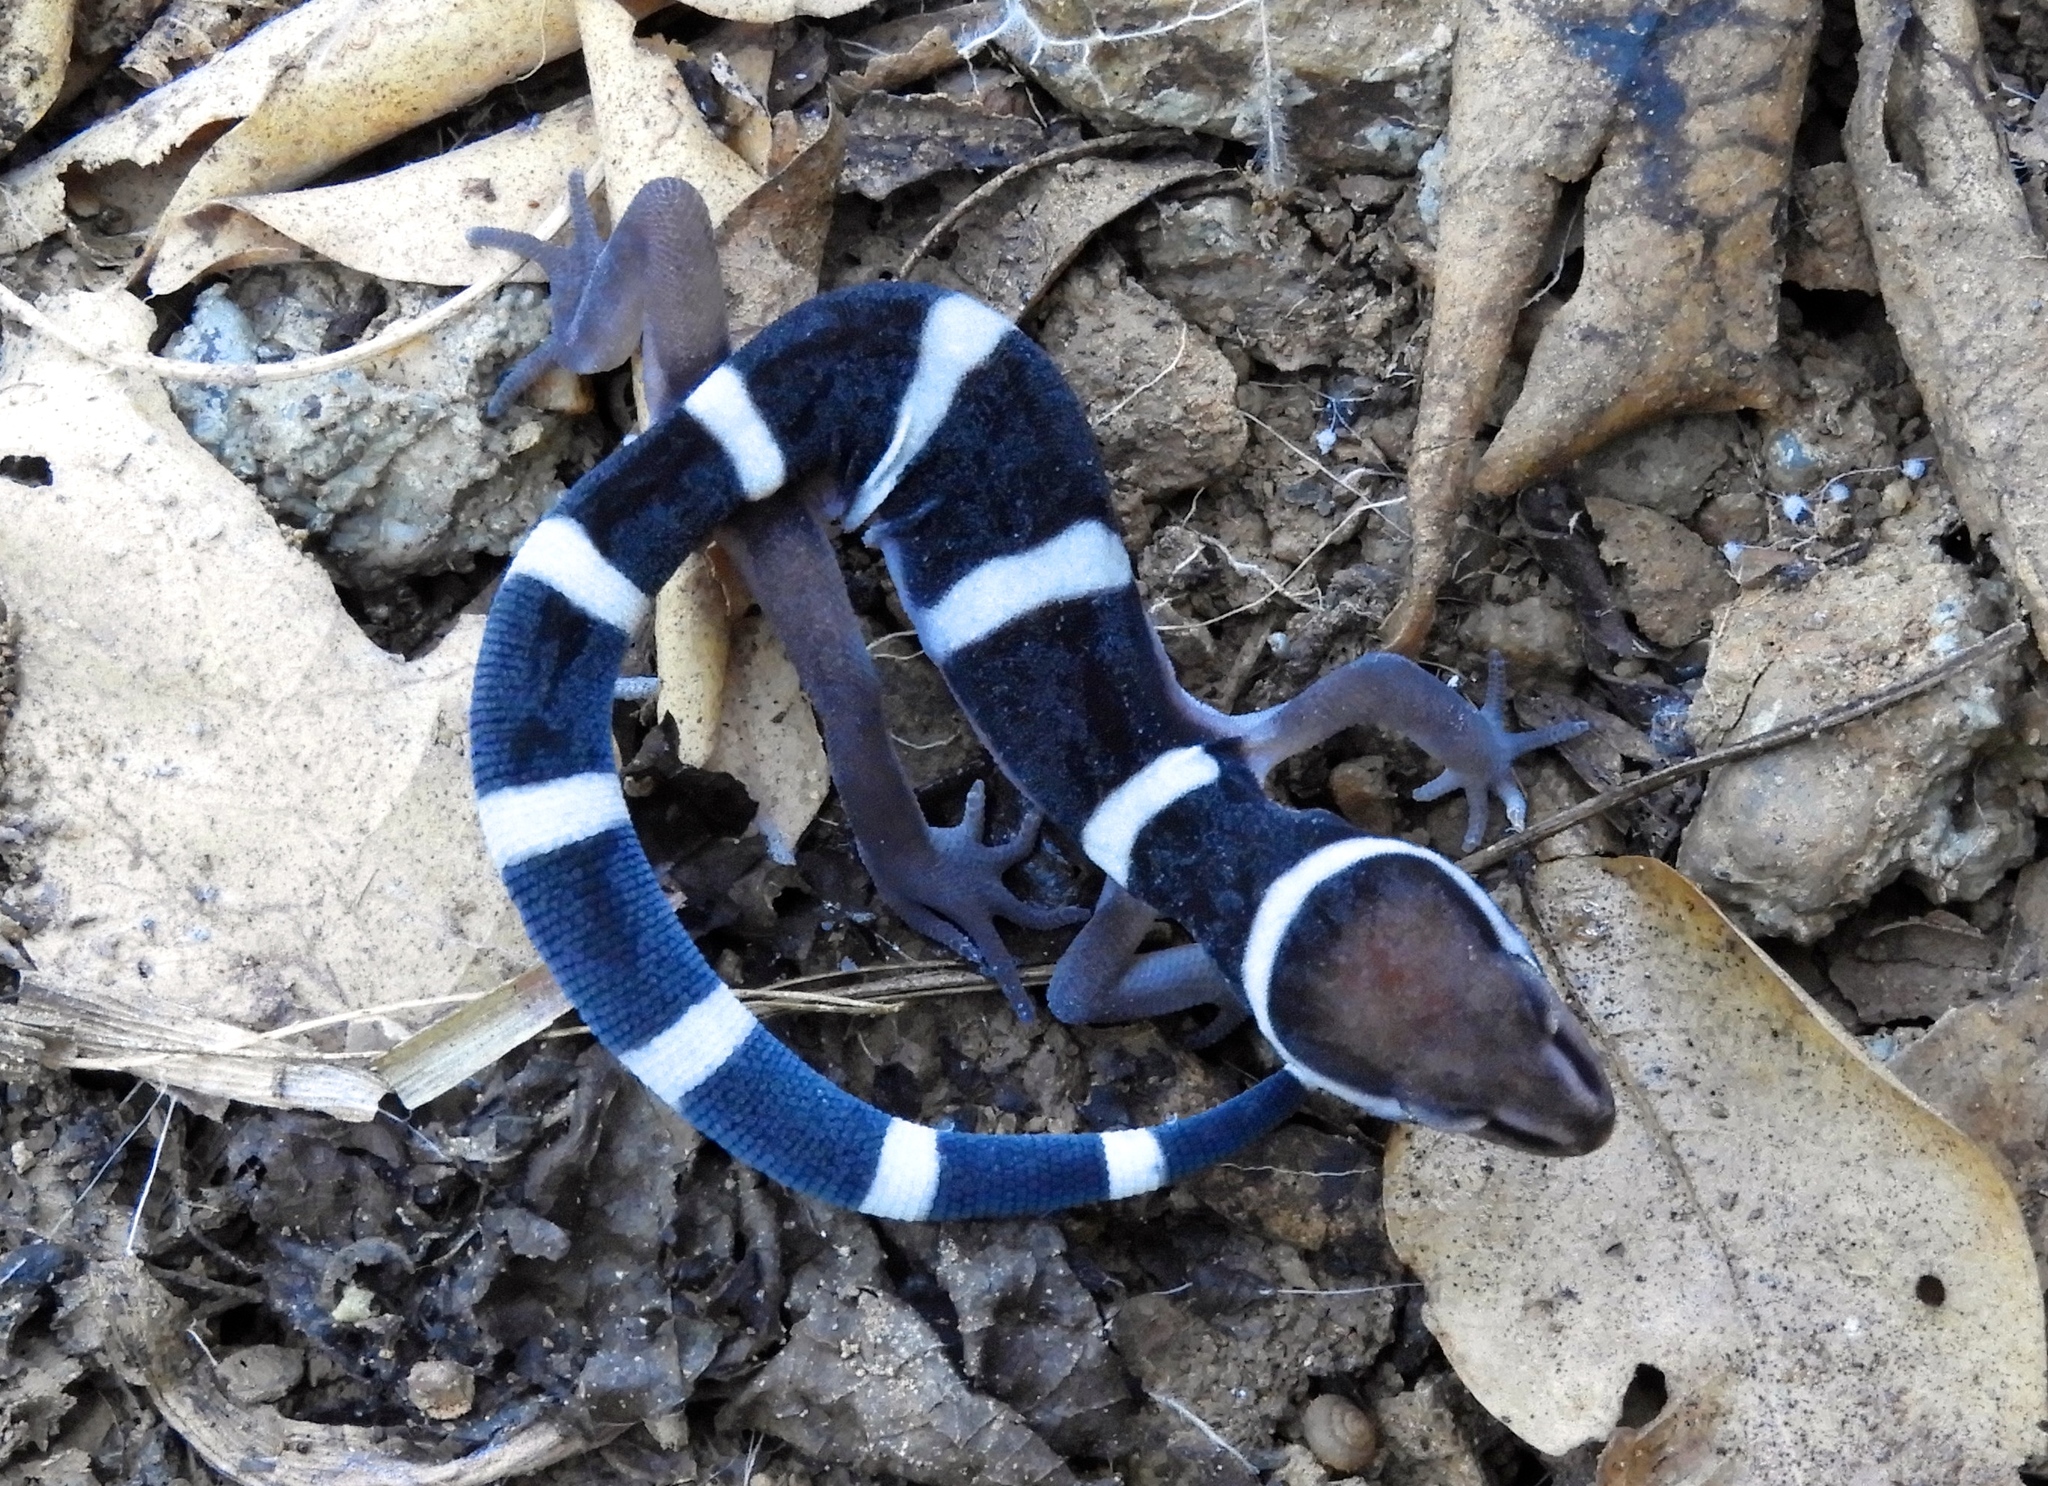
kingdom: Animalia
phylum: Chordata
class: Squamata
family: Eublepharidae
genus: Coleonyx
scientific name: Coleonyx fasciatus
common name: Black banded gecko
